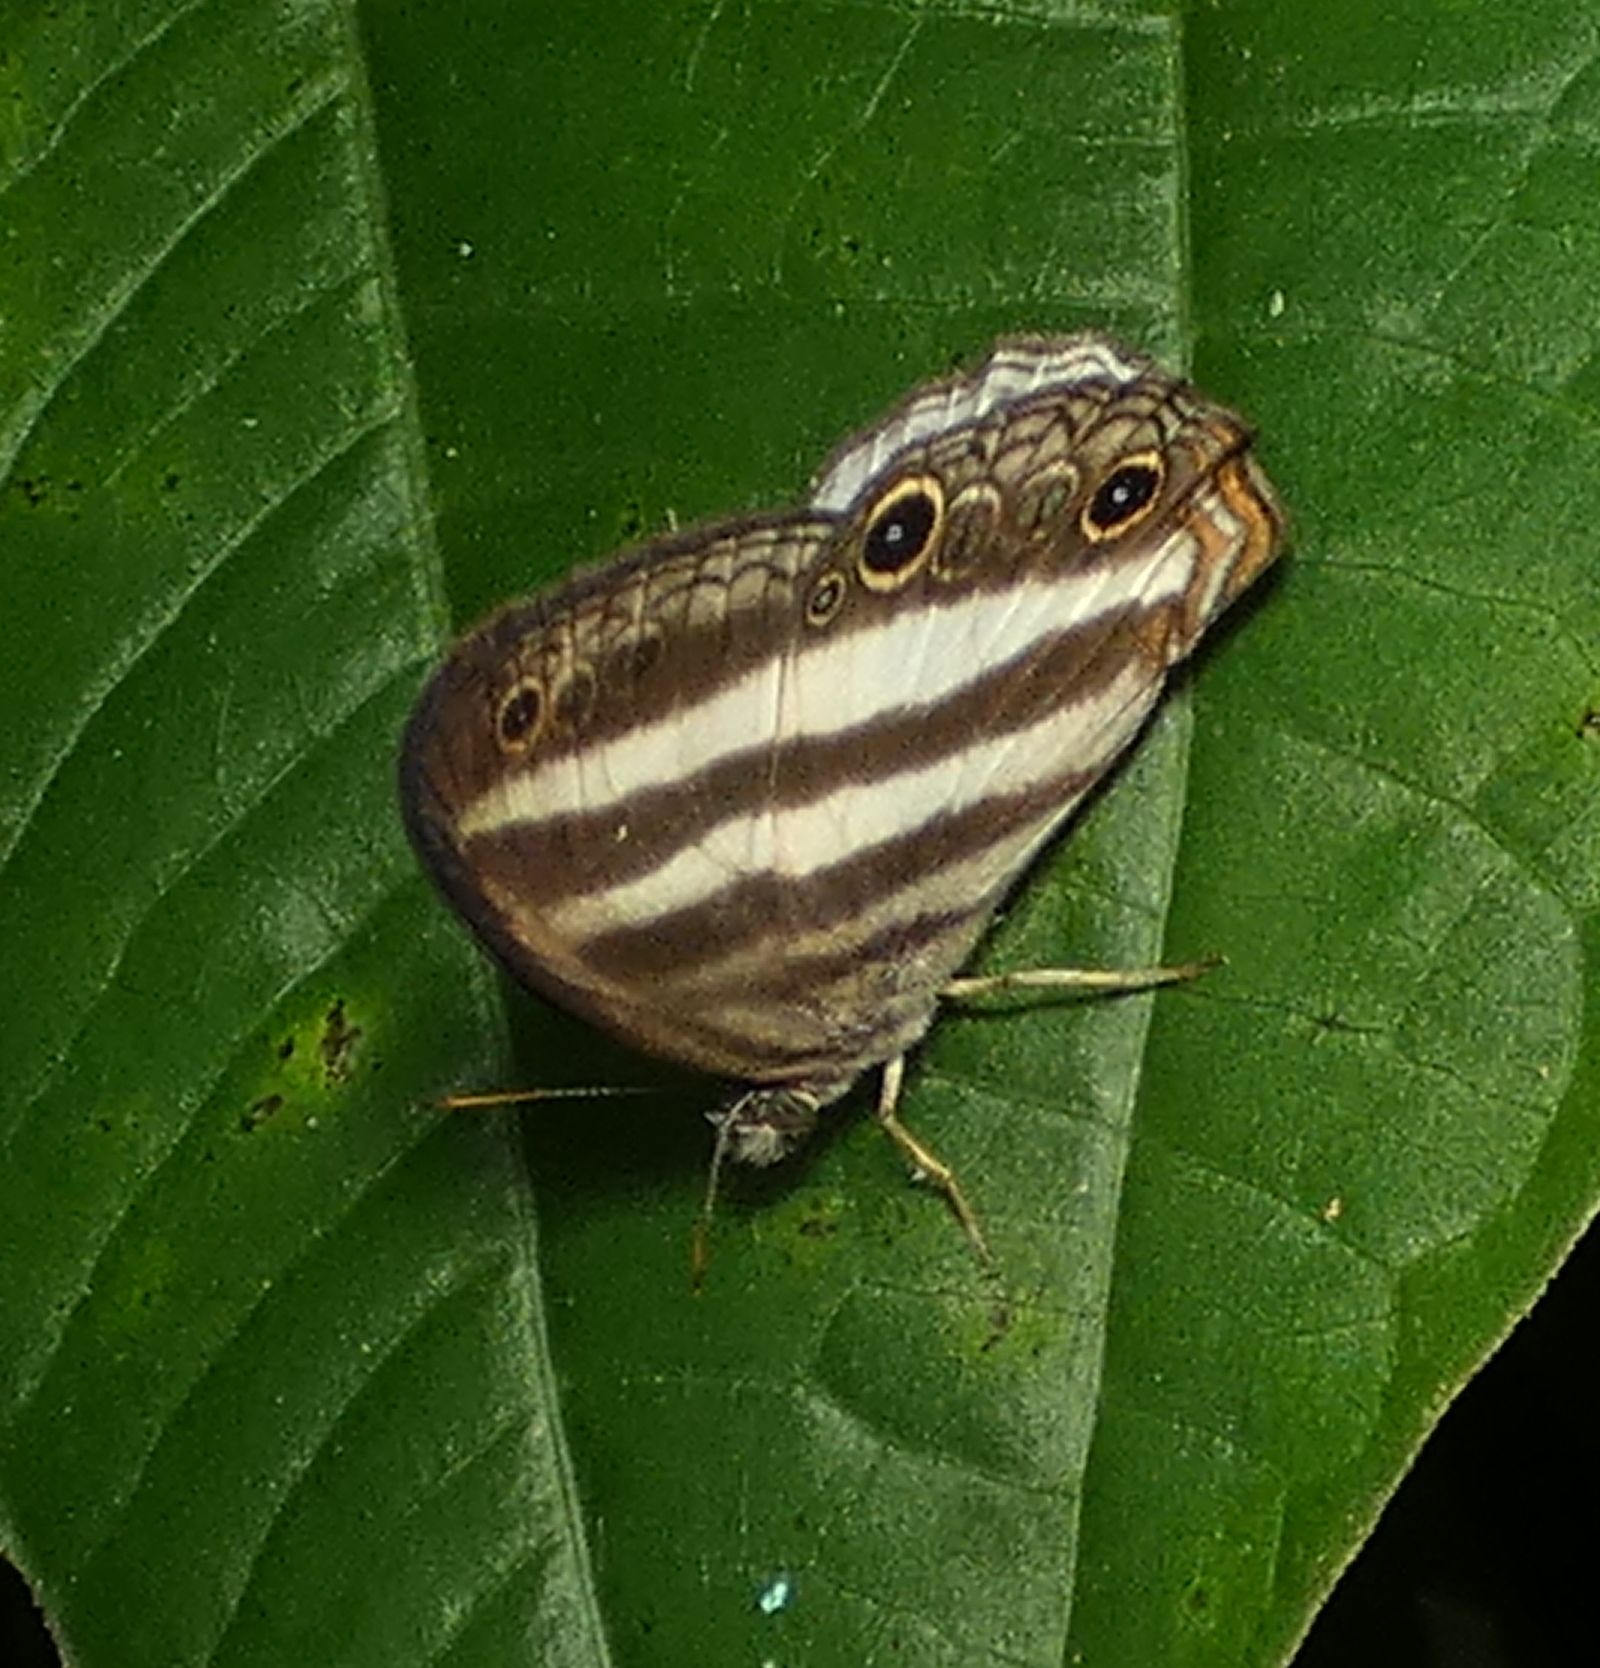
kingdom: Animalia
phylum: Arthropoda
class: Insecta
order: Lepidoptera
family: Nymphalidae
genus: Pareuptychia
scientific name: Pareuptychia hesione
